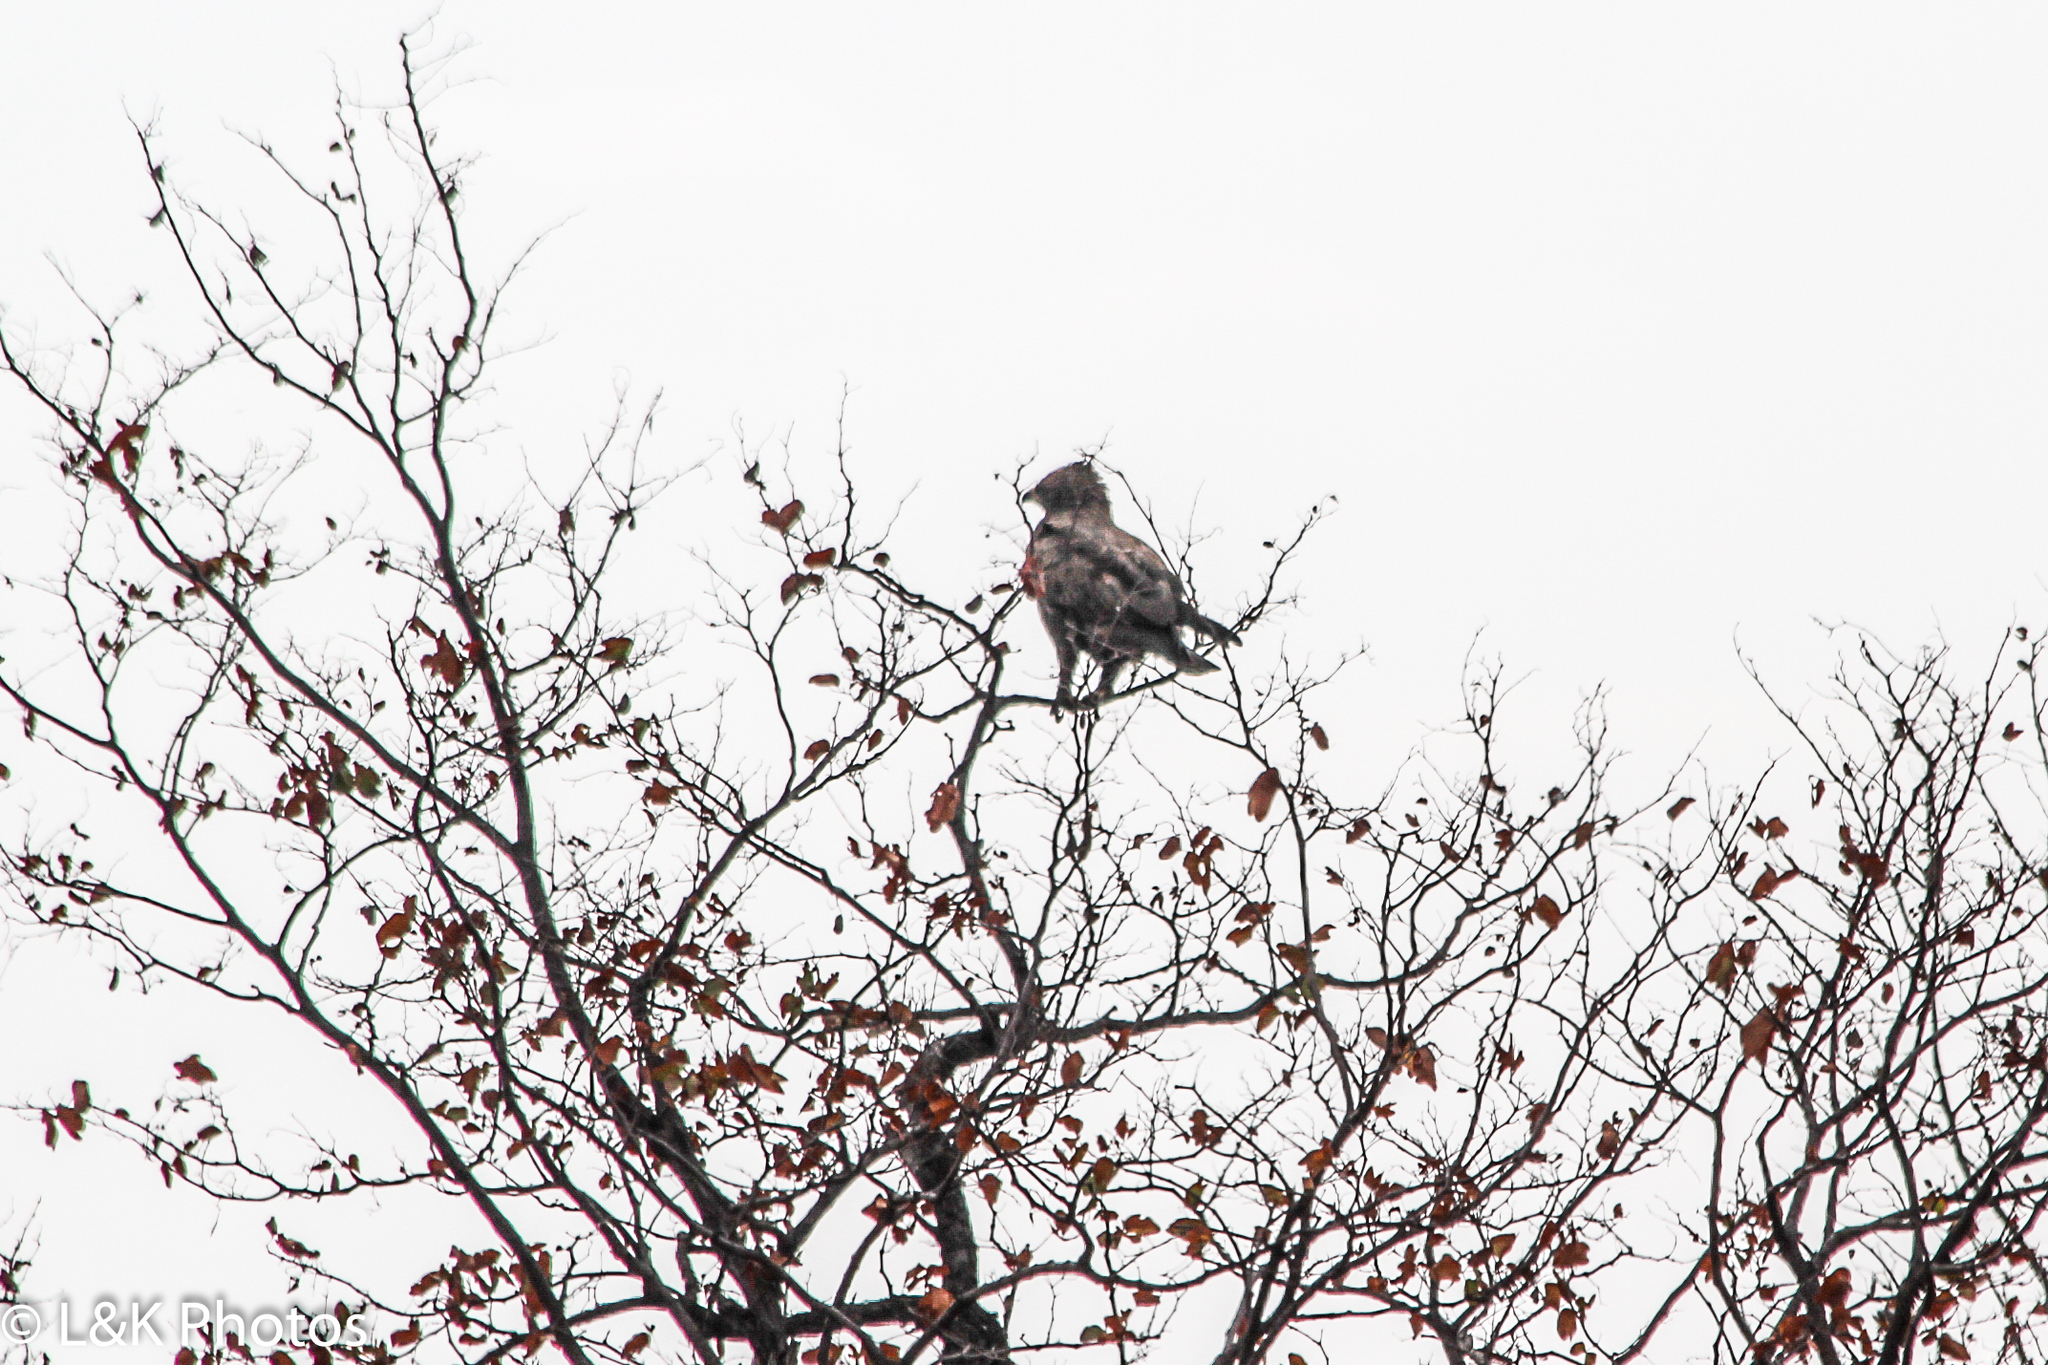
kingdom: Animalia
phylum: Chordata
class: Aves
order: Accipitriformes
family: Accipitridae
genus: Hieraaetus
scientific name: Hieraaetus wahlbergi
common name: Wahlberg's eagle
